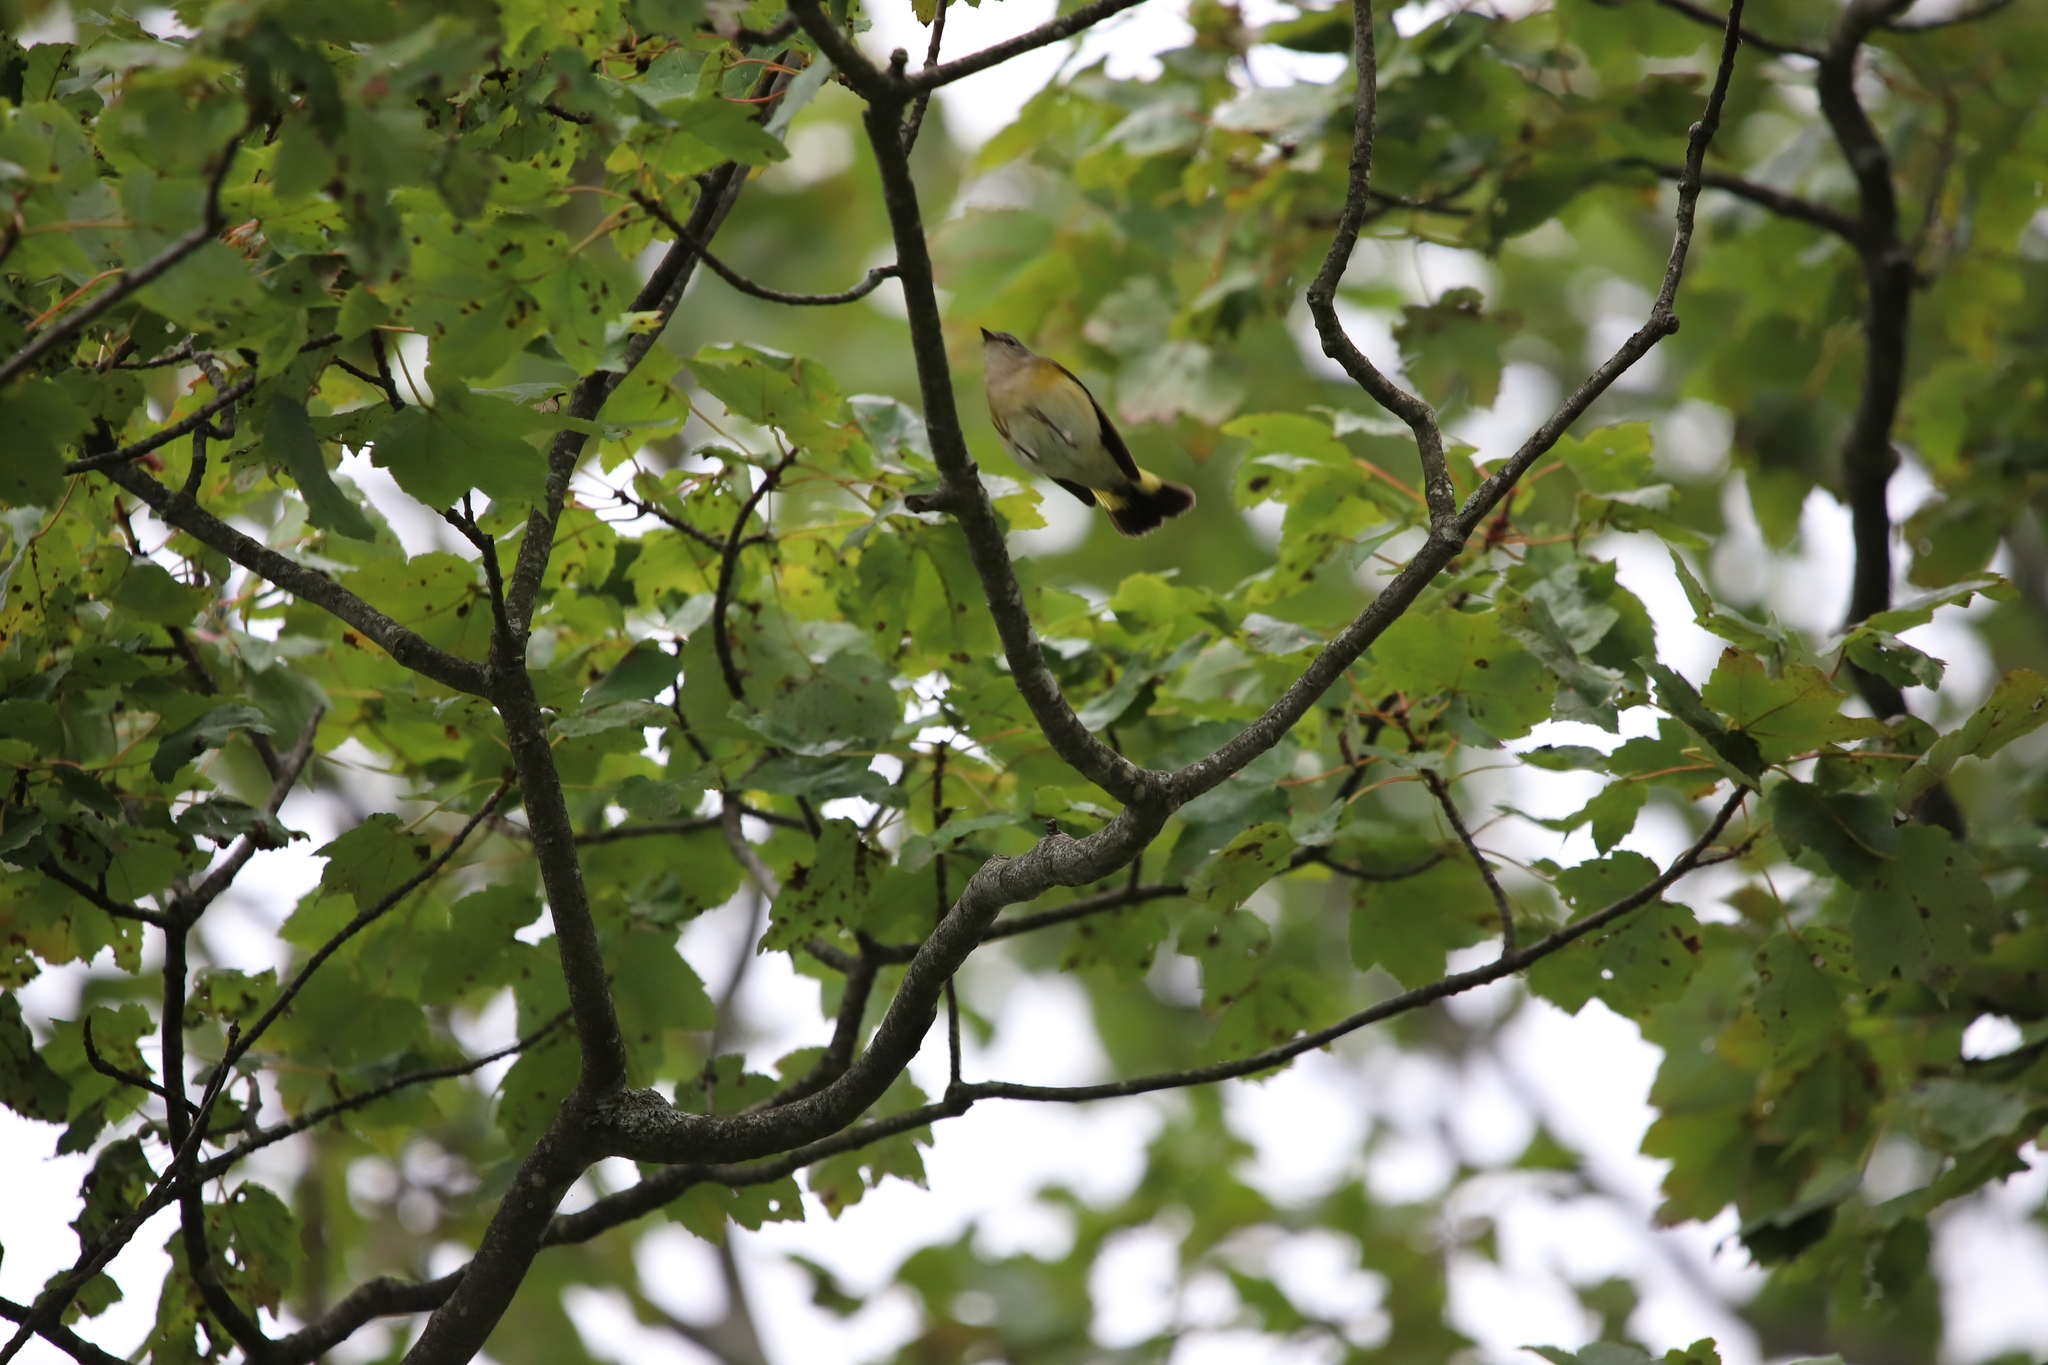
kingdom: Animalia
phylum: Chordata
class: Aves
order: Passeriformes
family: Parulidae
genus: Setophaga
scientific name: Setophaga ruticilla
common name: American redstart
